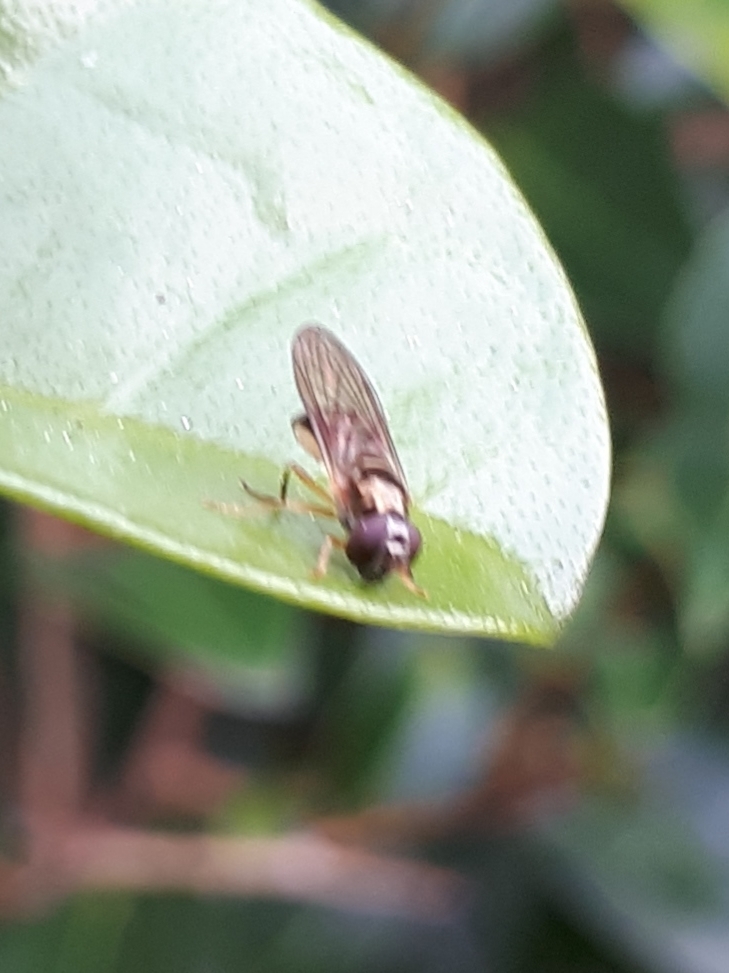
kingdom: Animalia
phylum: Arthropoda
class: Insecta
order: Diptera
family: Syrphidae
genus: Melanostoma
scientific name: Melanostoma fasciatum
